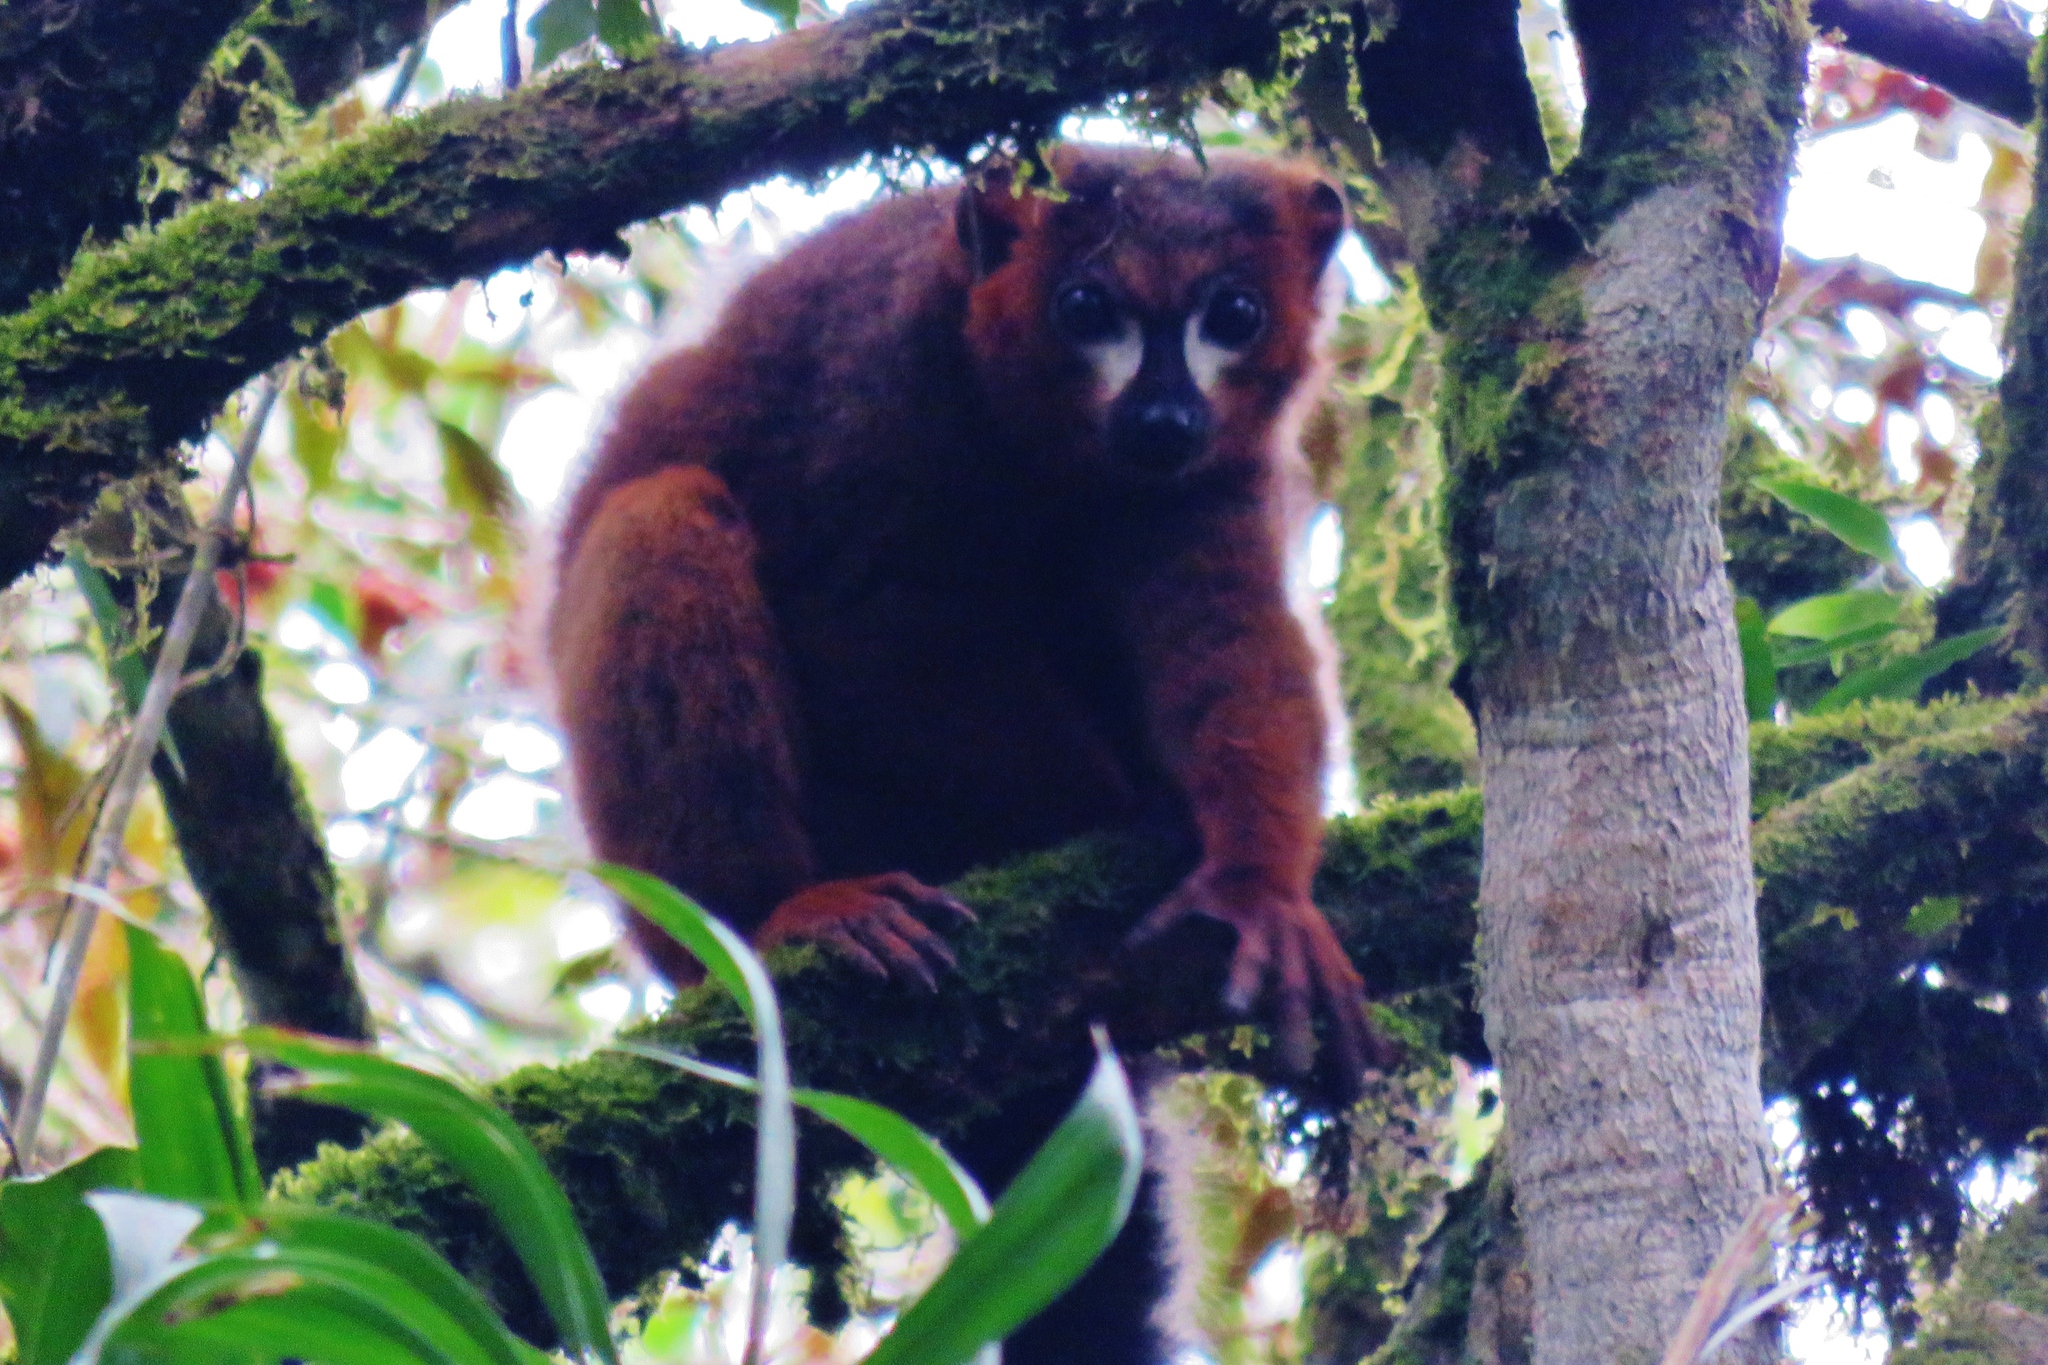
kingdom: Animalia
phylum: Chordata
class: Mammalia
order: Primates
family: Lemuridae
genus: Eulemur
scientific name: Eulemur rubriventer
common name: Red-bellied lemur
